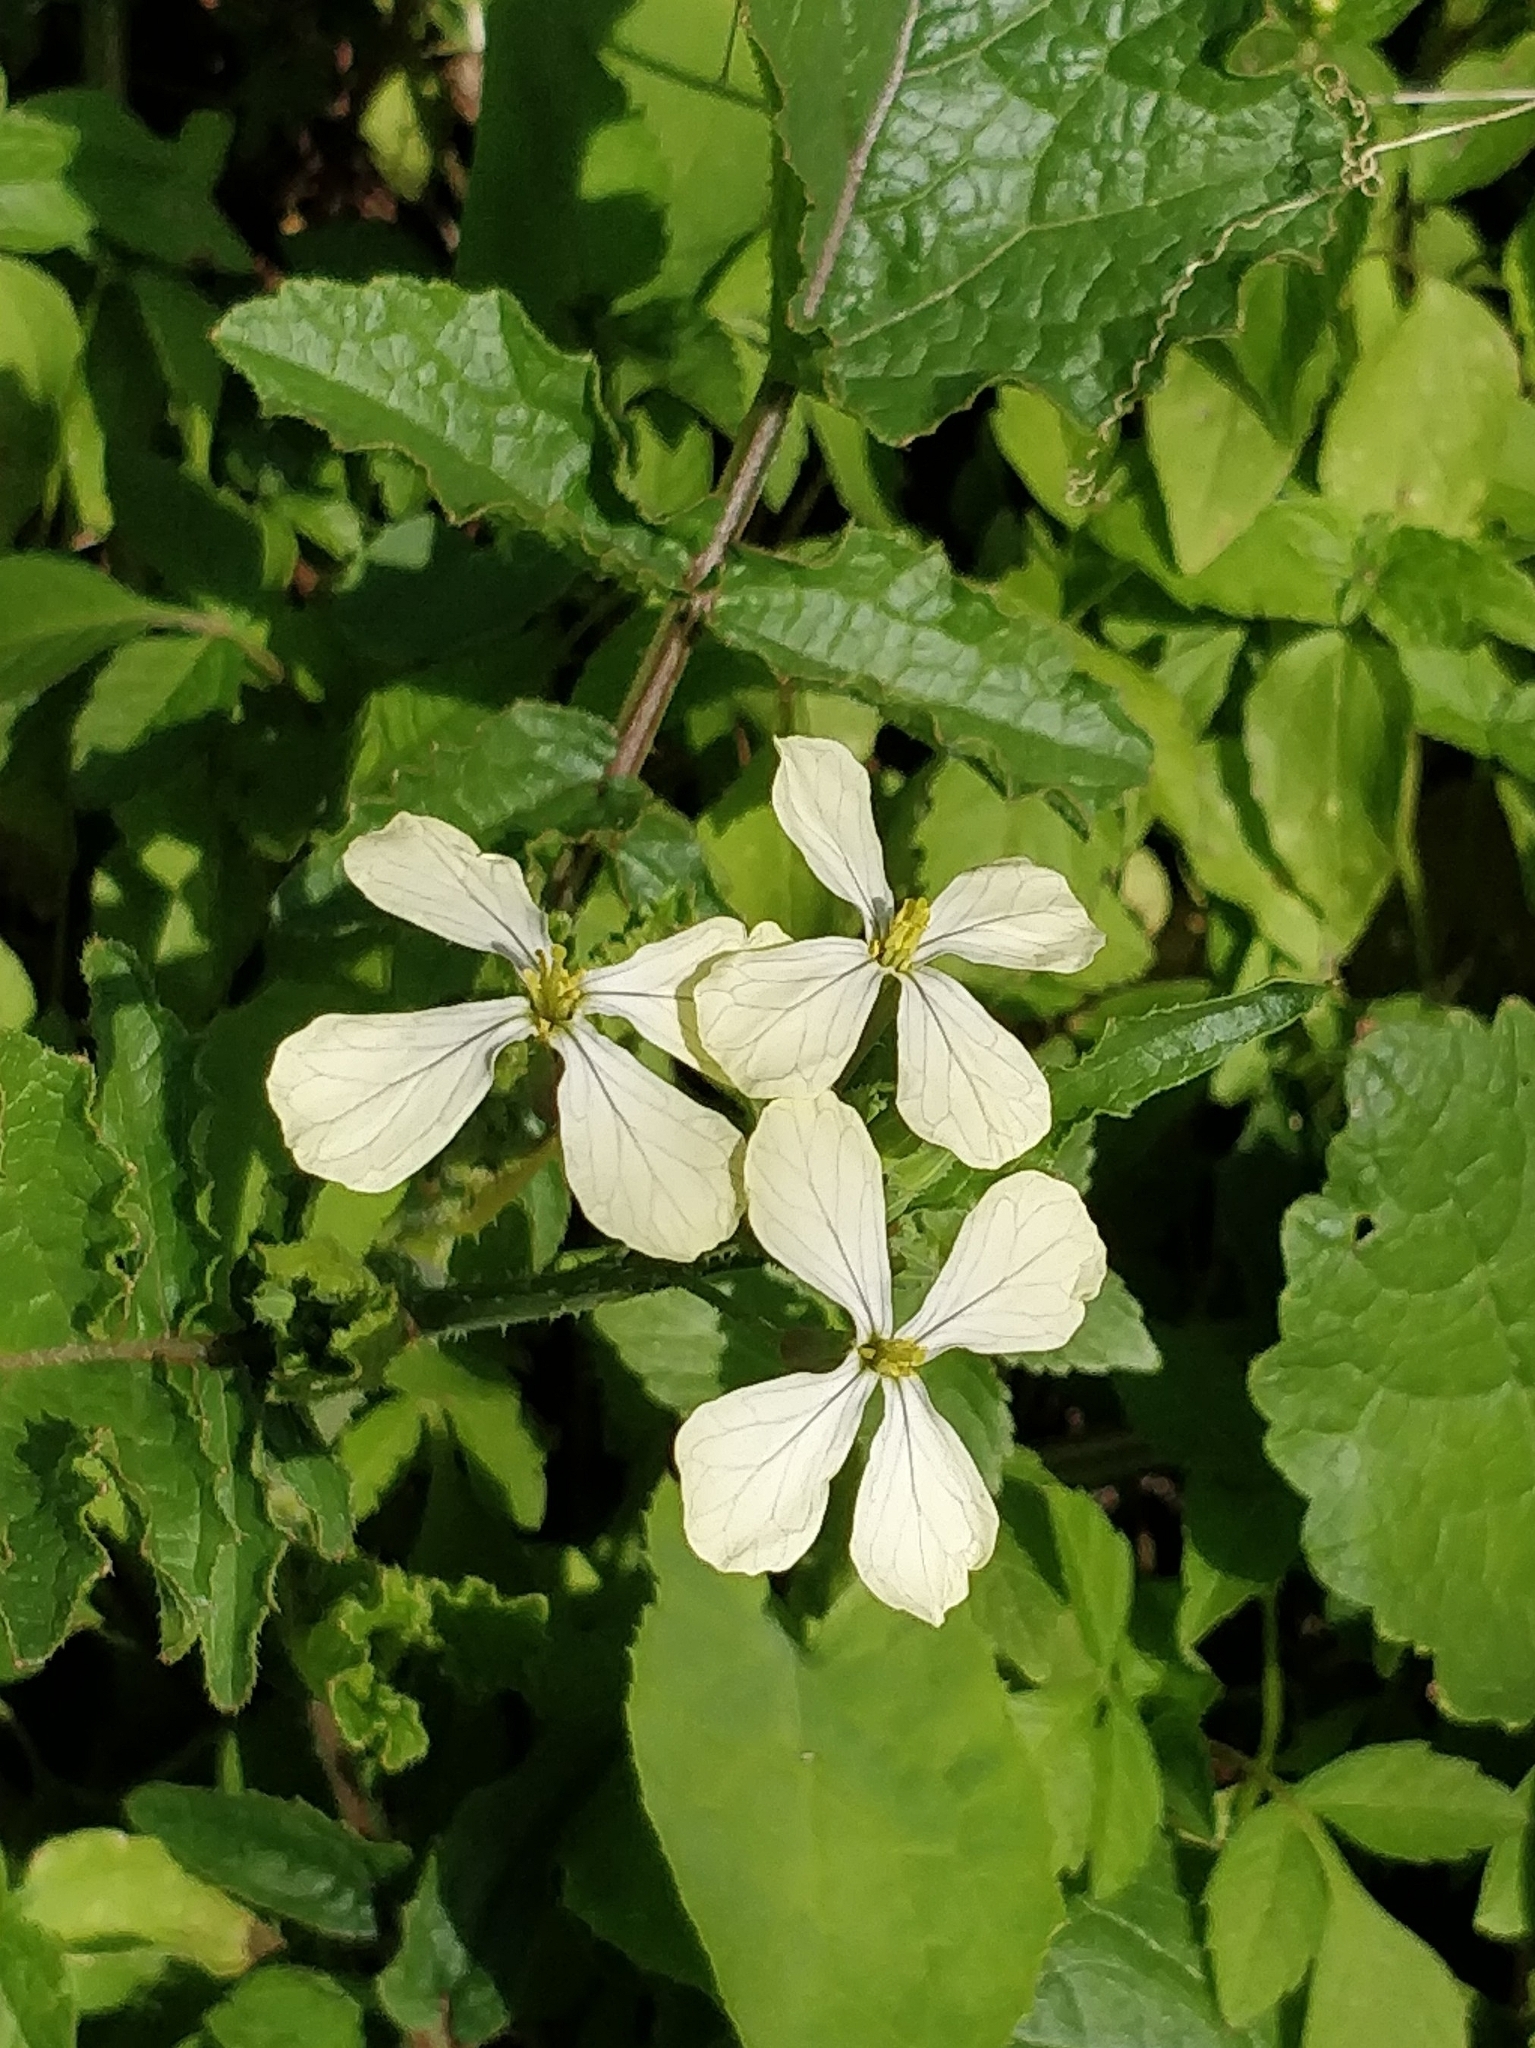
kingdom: Plantae
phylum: Tracheophyta
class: Magnoliopsida
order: Brassicales
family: Brassicaceae
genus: Eruca
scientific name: Eruca vesicaria
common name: Garden rocket
